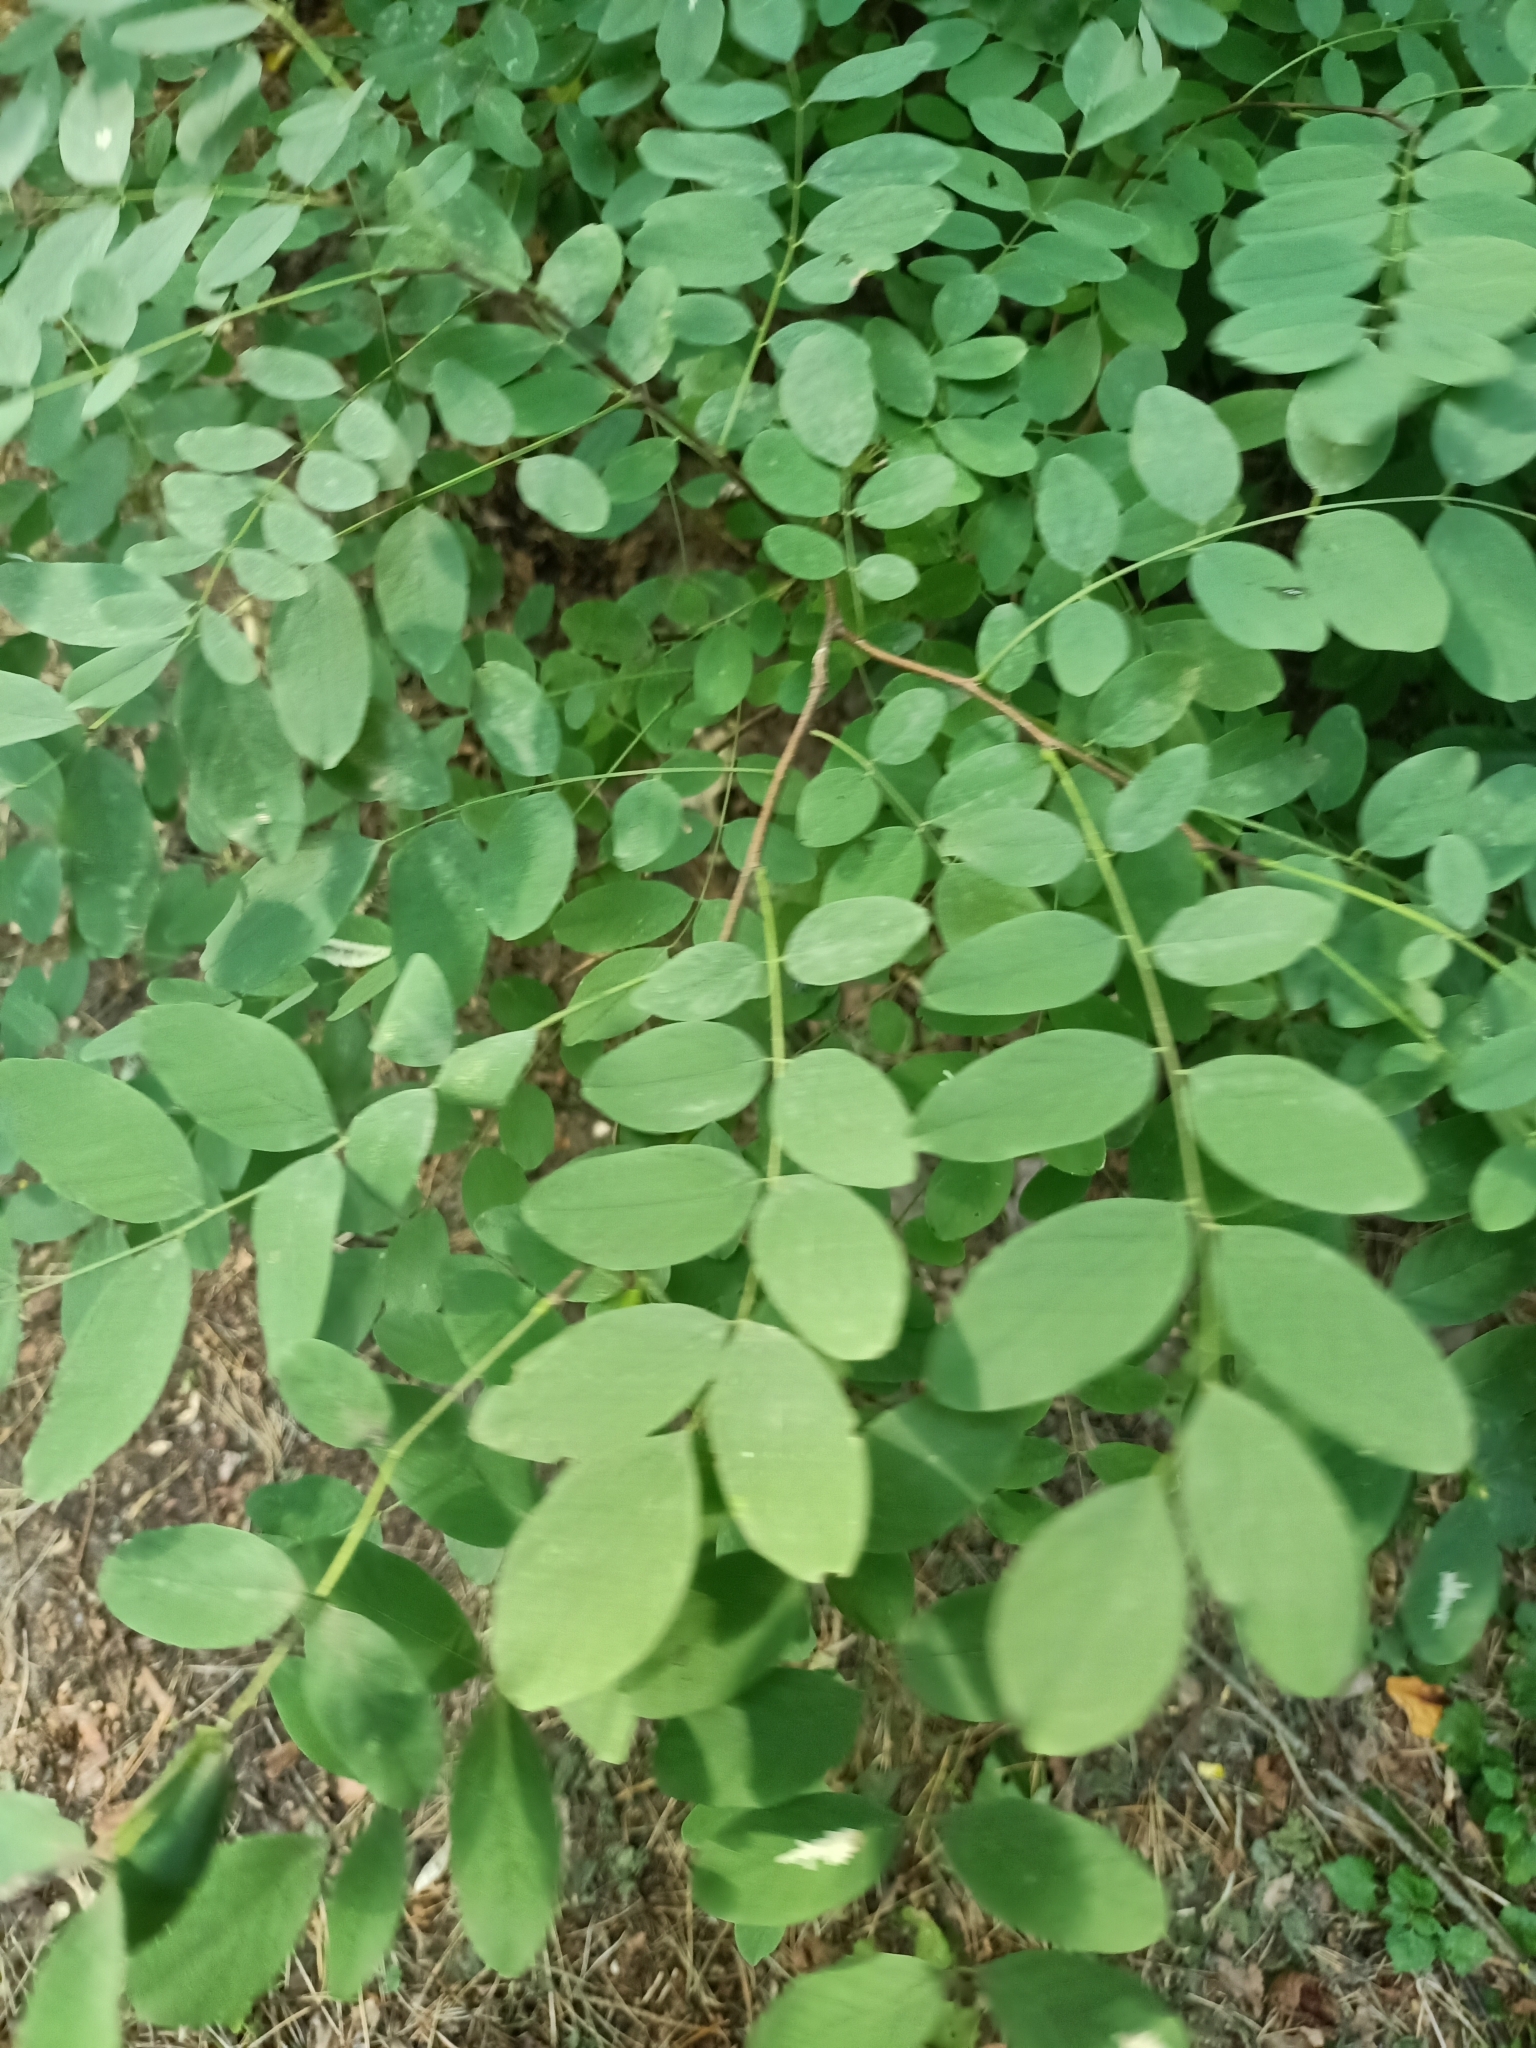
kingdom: Plantae
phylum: Tracheophyta
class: Magnoliopsida
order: Fabales
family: Fabaceae
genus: Robinia
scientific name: Robinia pseudoacacia
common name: Black locust
